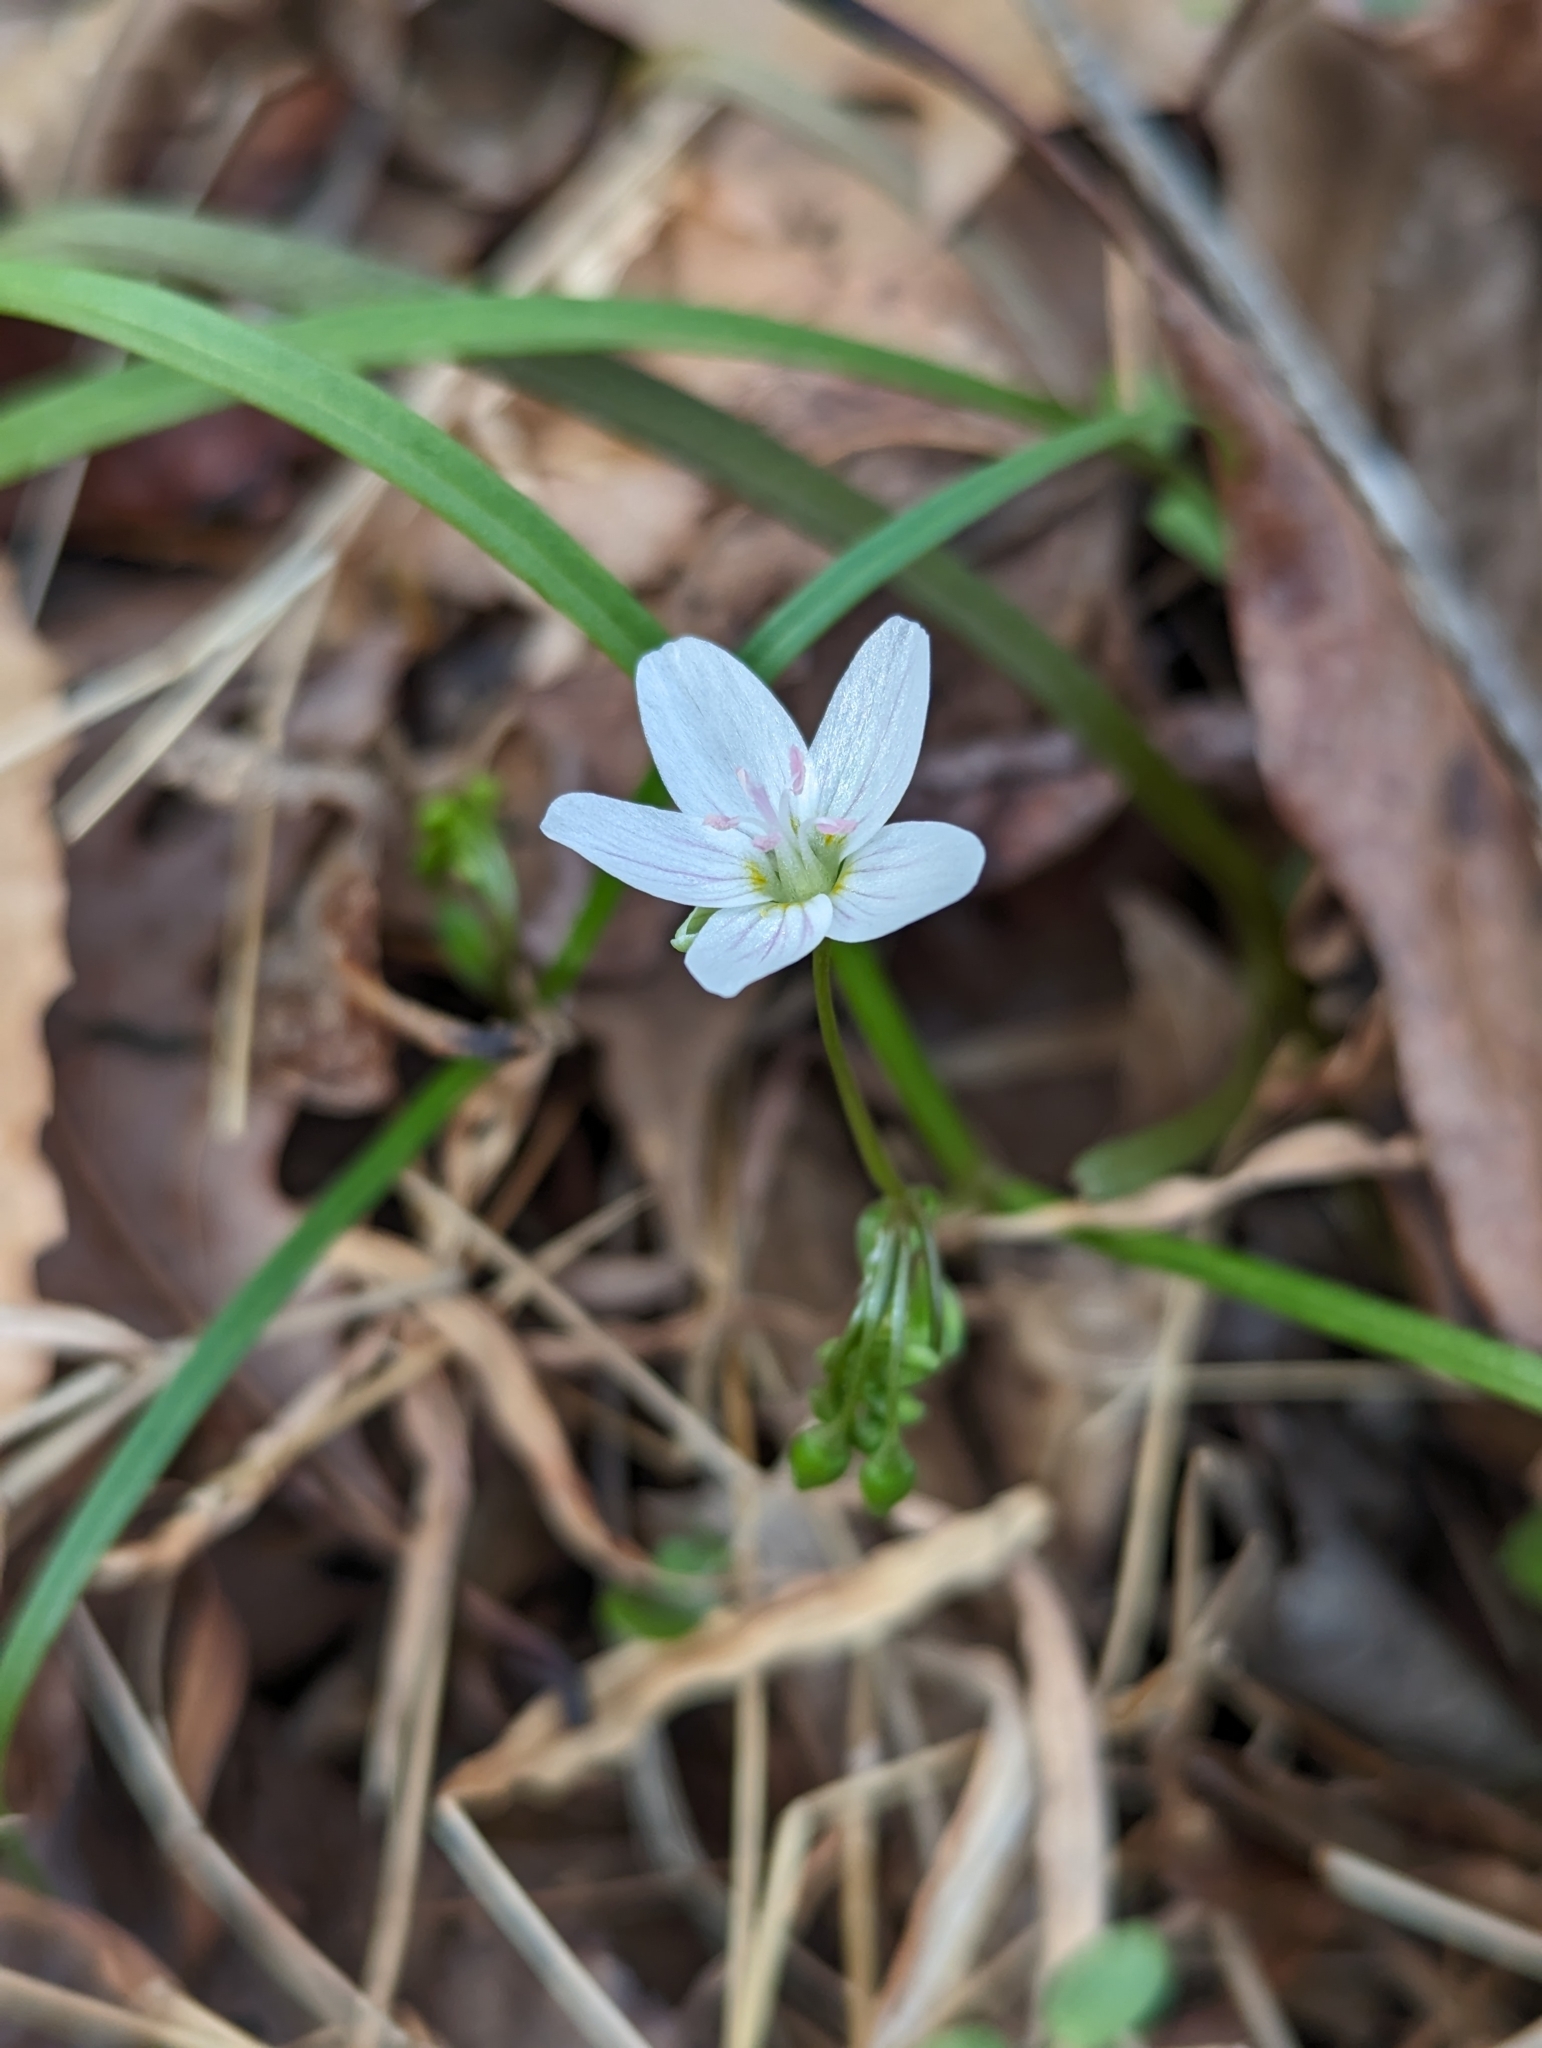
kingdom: Plantae
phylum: Tracheophyta
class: Magnoliopsida
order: Caryophyllales
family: Montiaceae
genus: Claytonia
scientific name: Claytonia virginica
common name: Virginia springbeauty
